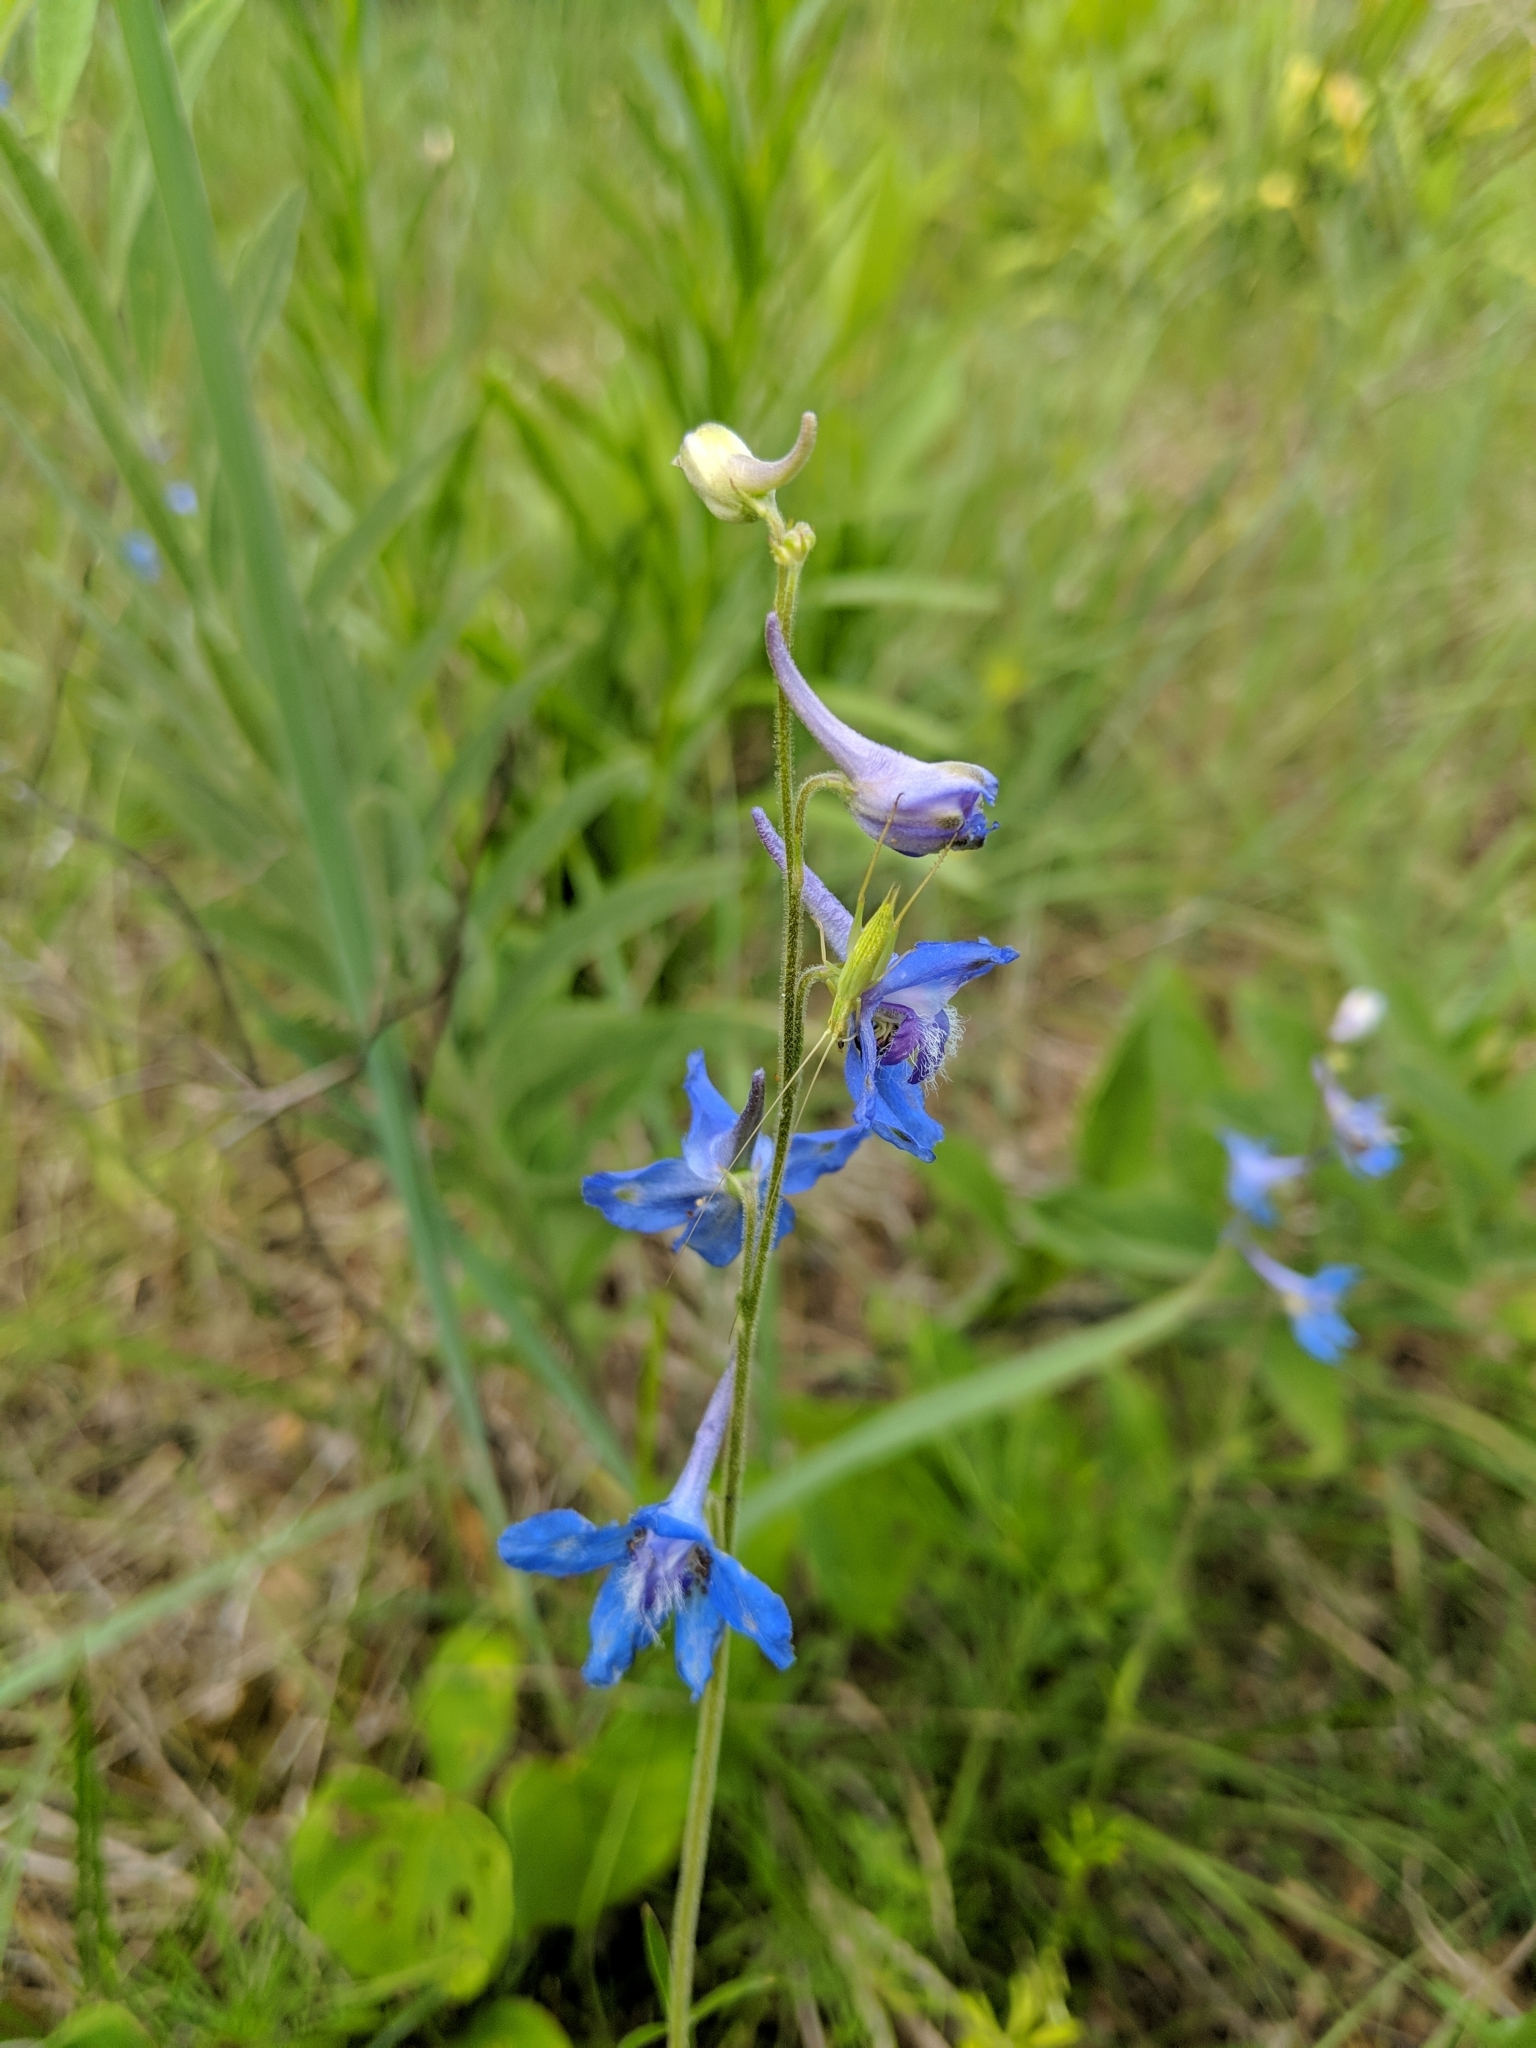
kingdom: Plantae
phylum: Tracheophyta
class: Magnoliopsida
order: Ranunculales
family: Ranunculaceae
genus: Delphinium
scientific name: Delphinium carolinianum
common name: Carolina larkspur
